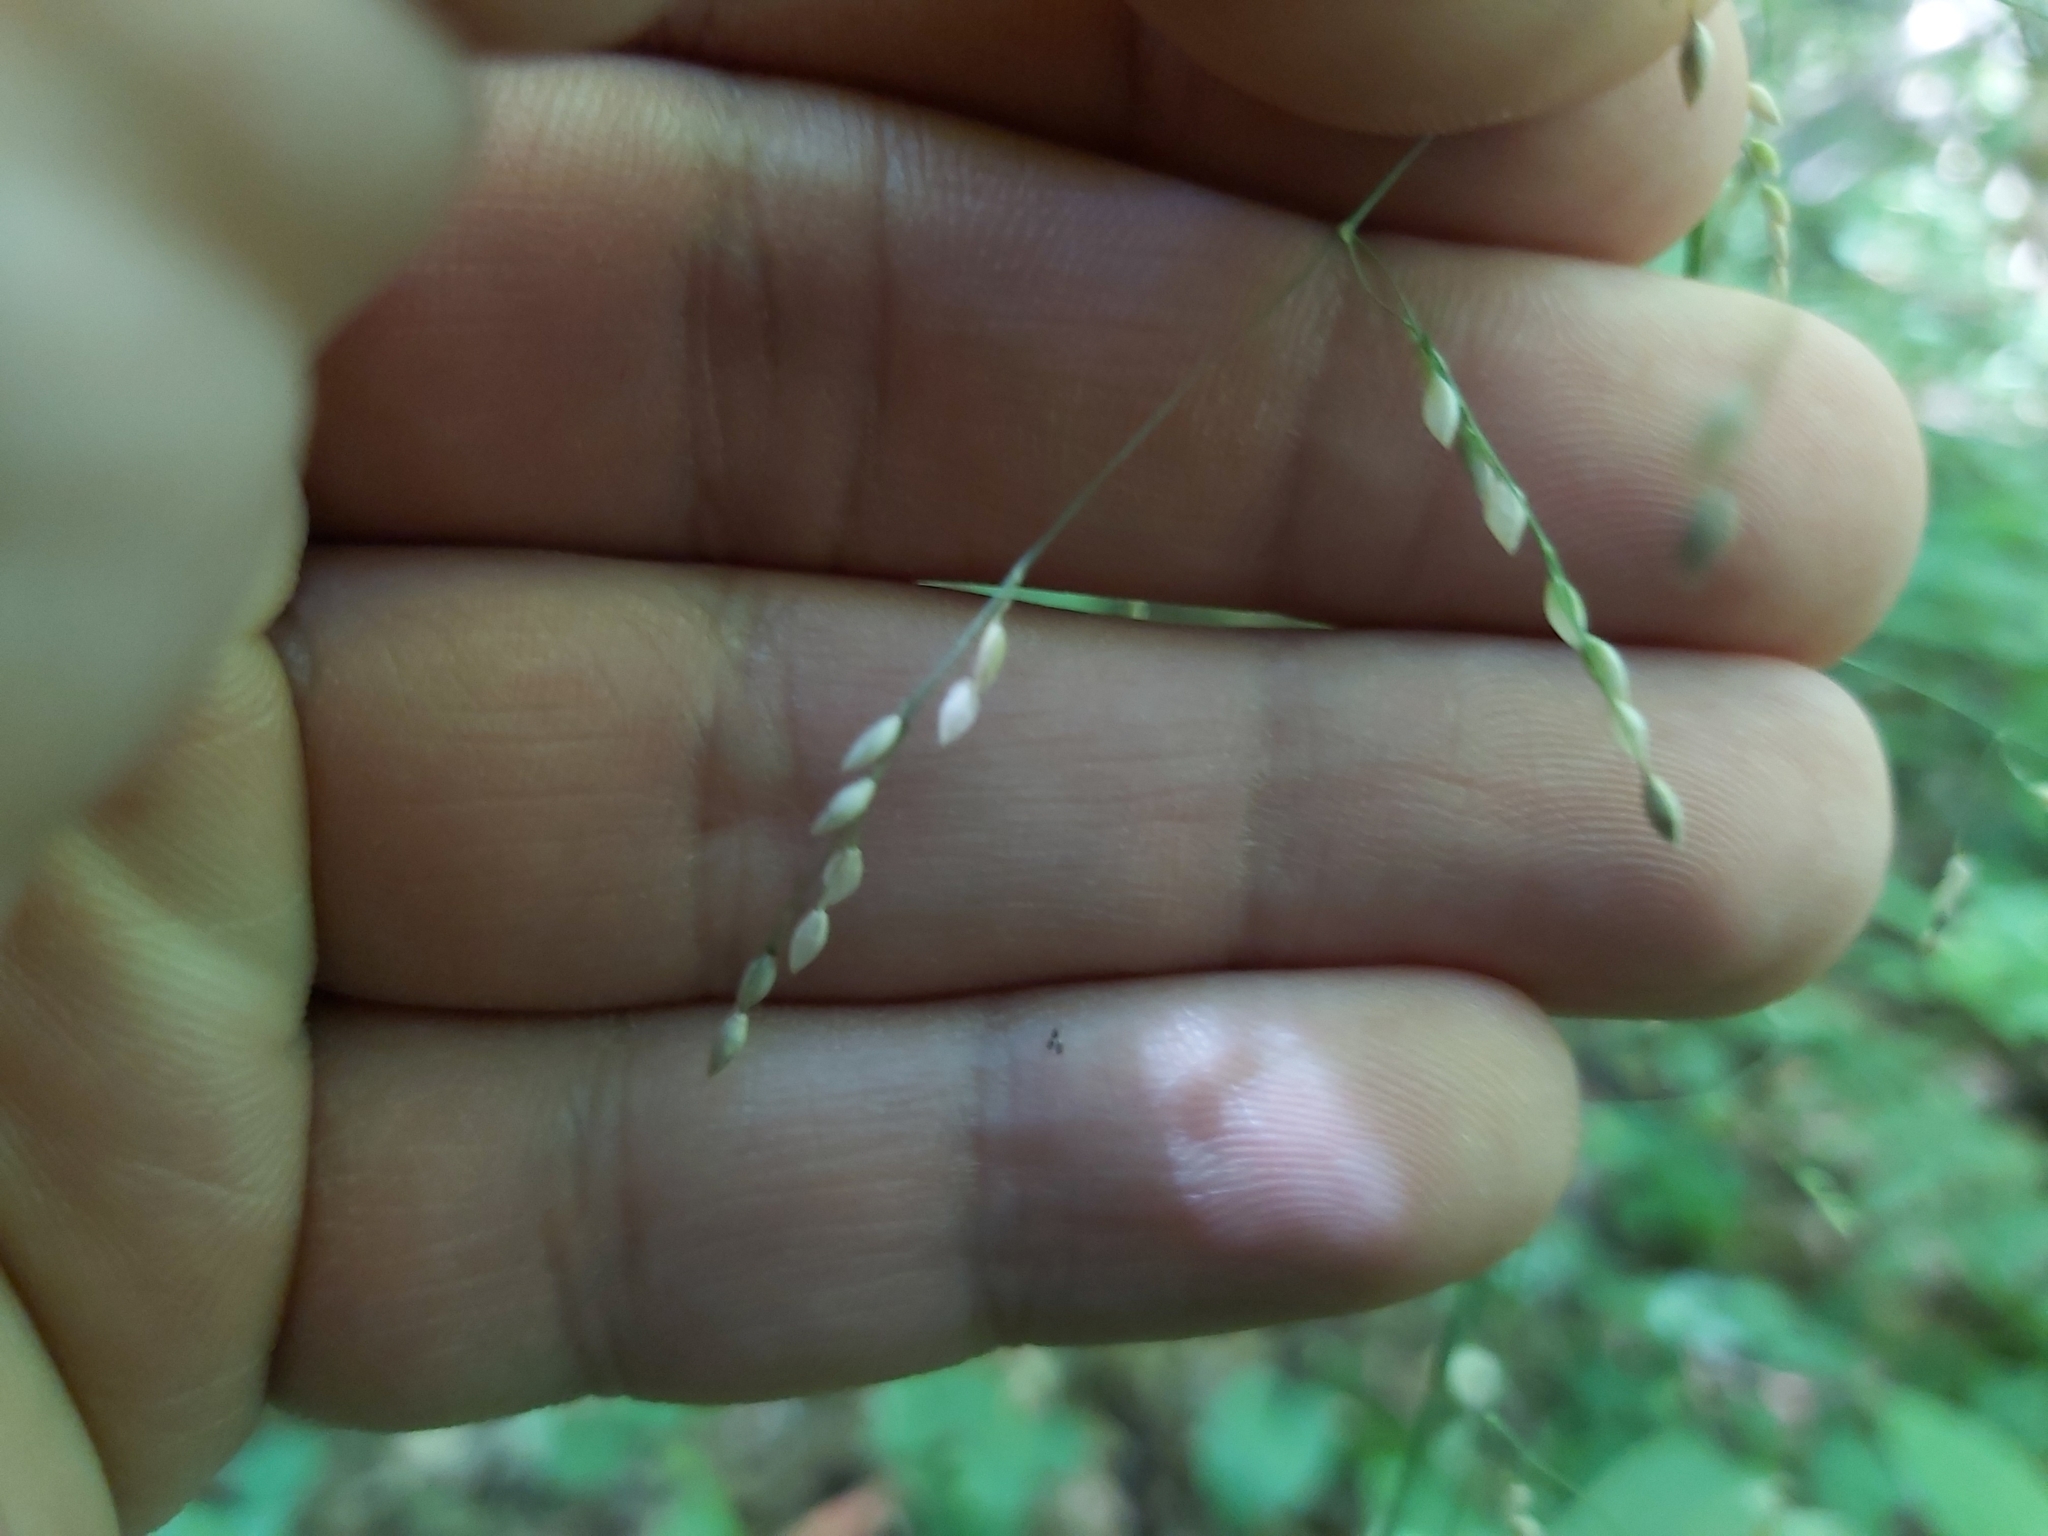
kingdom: Plantae
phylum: Tracheophyta
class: Liliopsida
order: Poales
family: Poaceae
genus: Milium
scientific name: Milium effusum
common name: Wood millet
